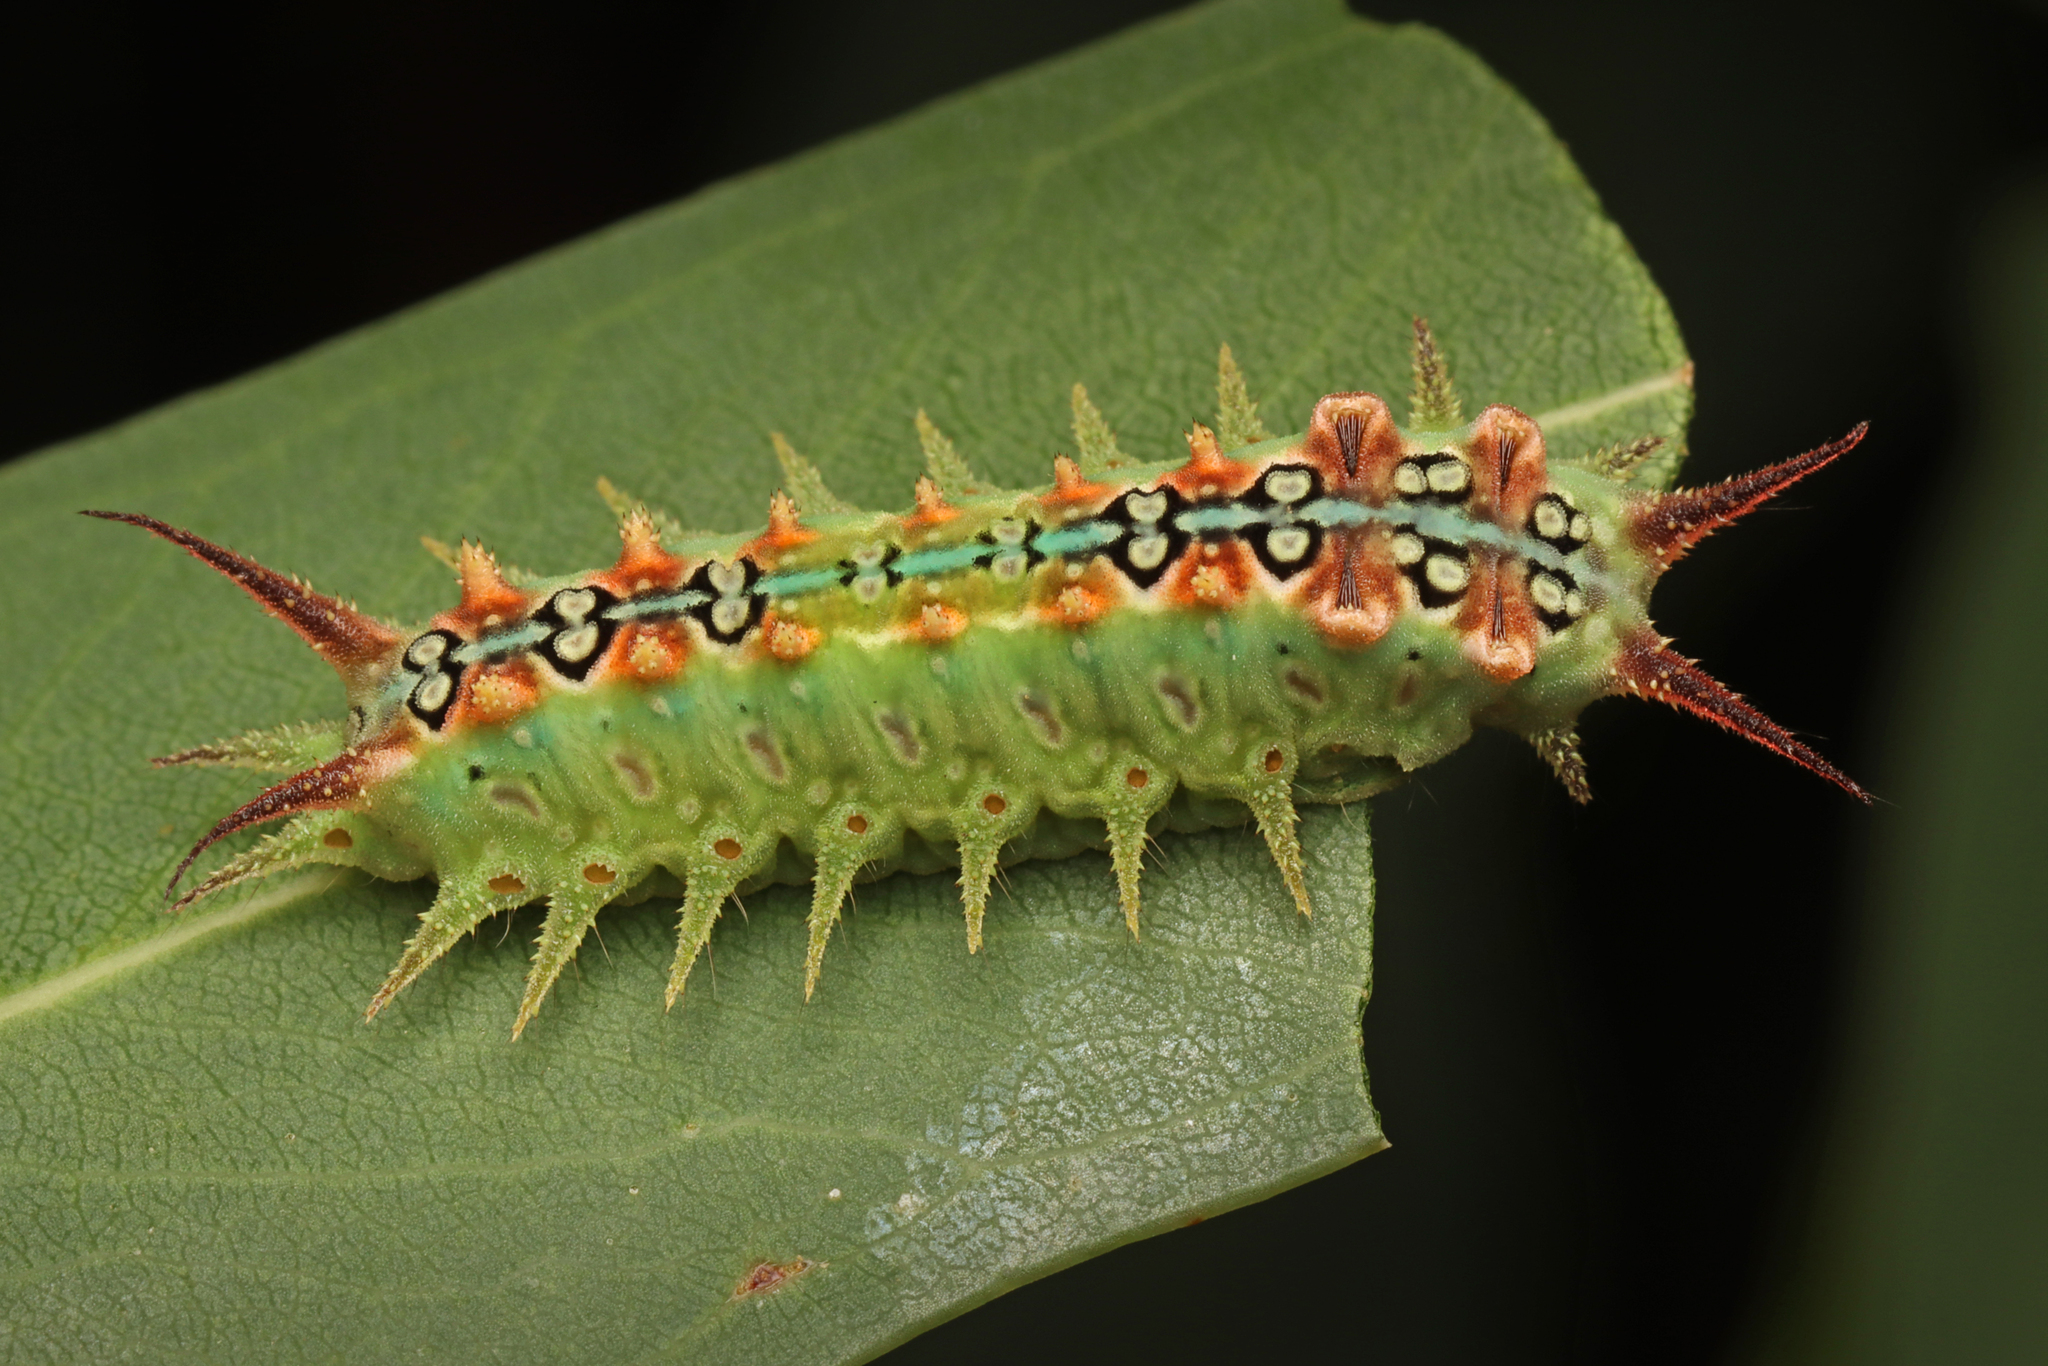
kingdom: Animalia
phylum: Arthropoda
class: Insecta
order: Lepidoptera
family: Limacodidae
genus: Doratifera
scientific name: Doratifera quadriguttata
